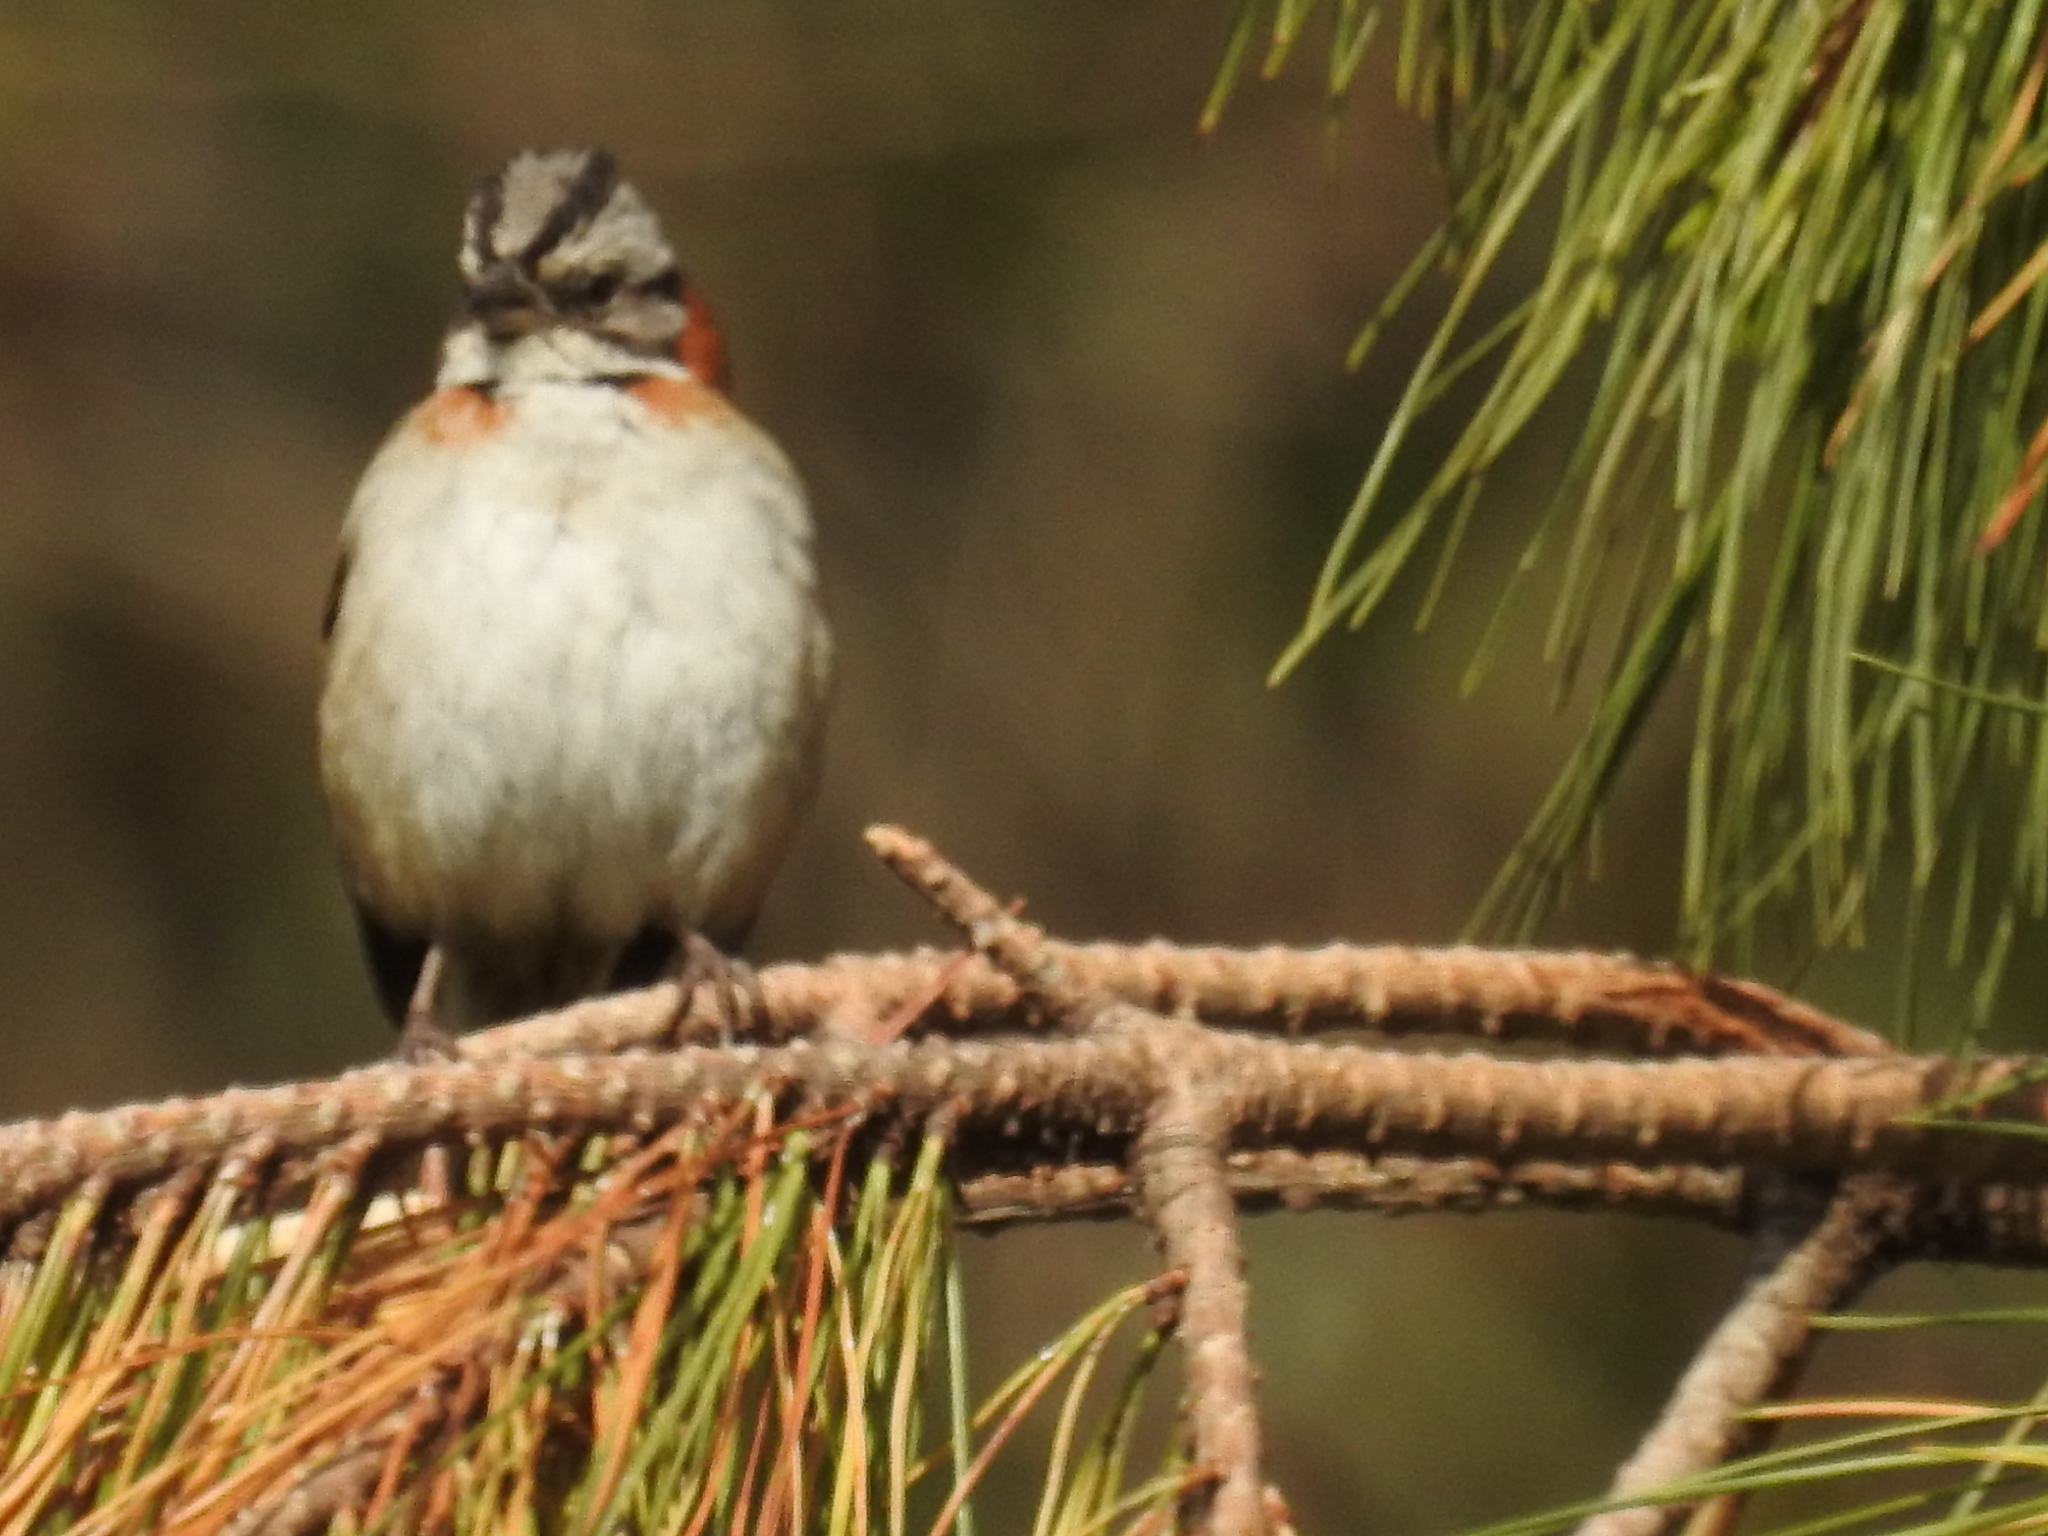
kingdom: Animalia
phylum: Chordata
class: Aves
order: Passeriformes
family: Passerellidae
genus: Zonotrichia
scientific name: Zonotrichia capensis
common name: Rufous-collared sparrow
